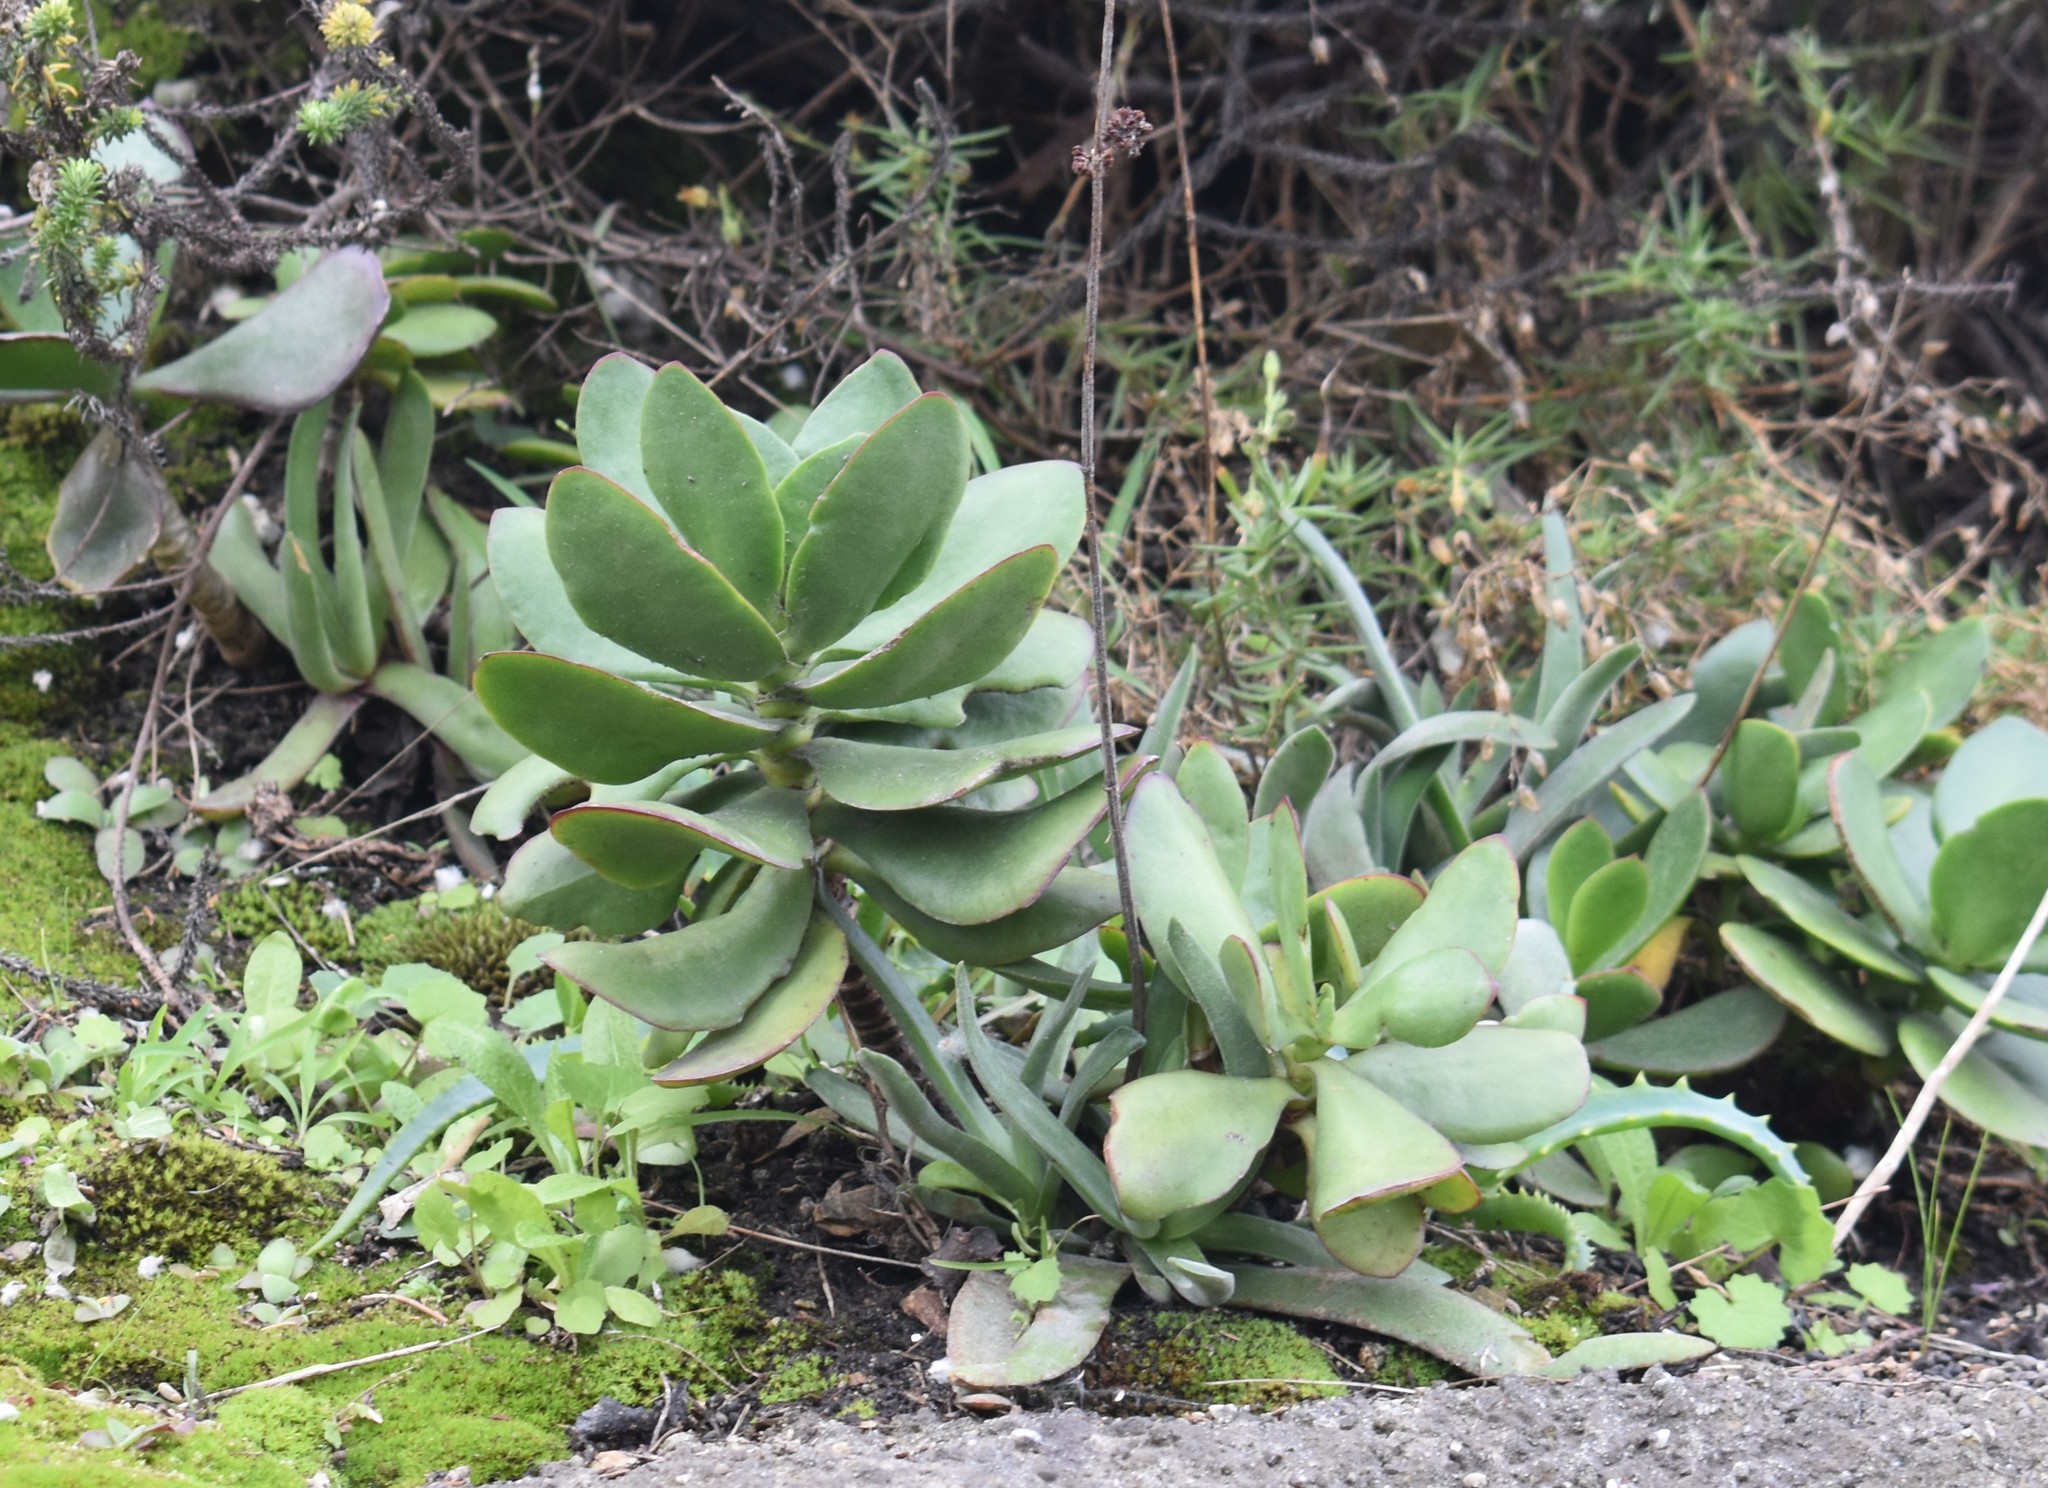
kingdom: Plantae
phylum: Tracheophyta
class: Magnoliopsida
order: Saxifragales
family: Crassulaceae
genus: Cotyledon
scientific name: Cotyledon orbiculata
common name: Pig's ear
